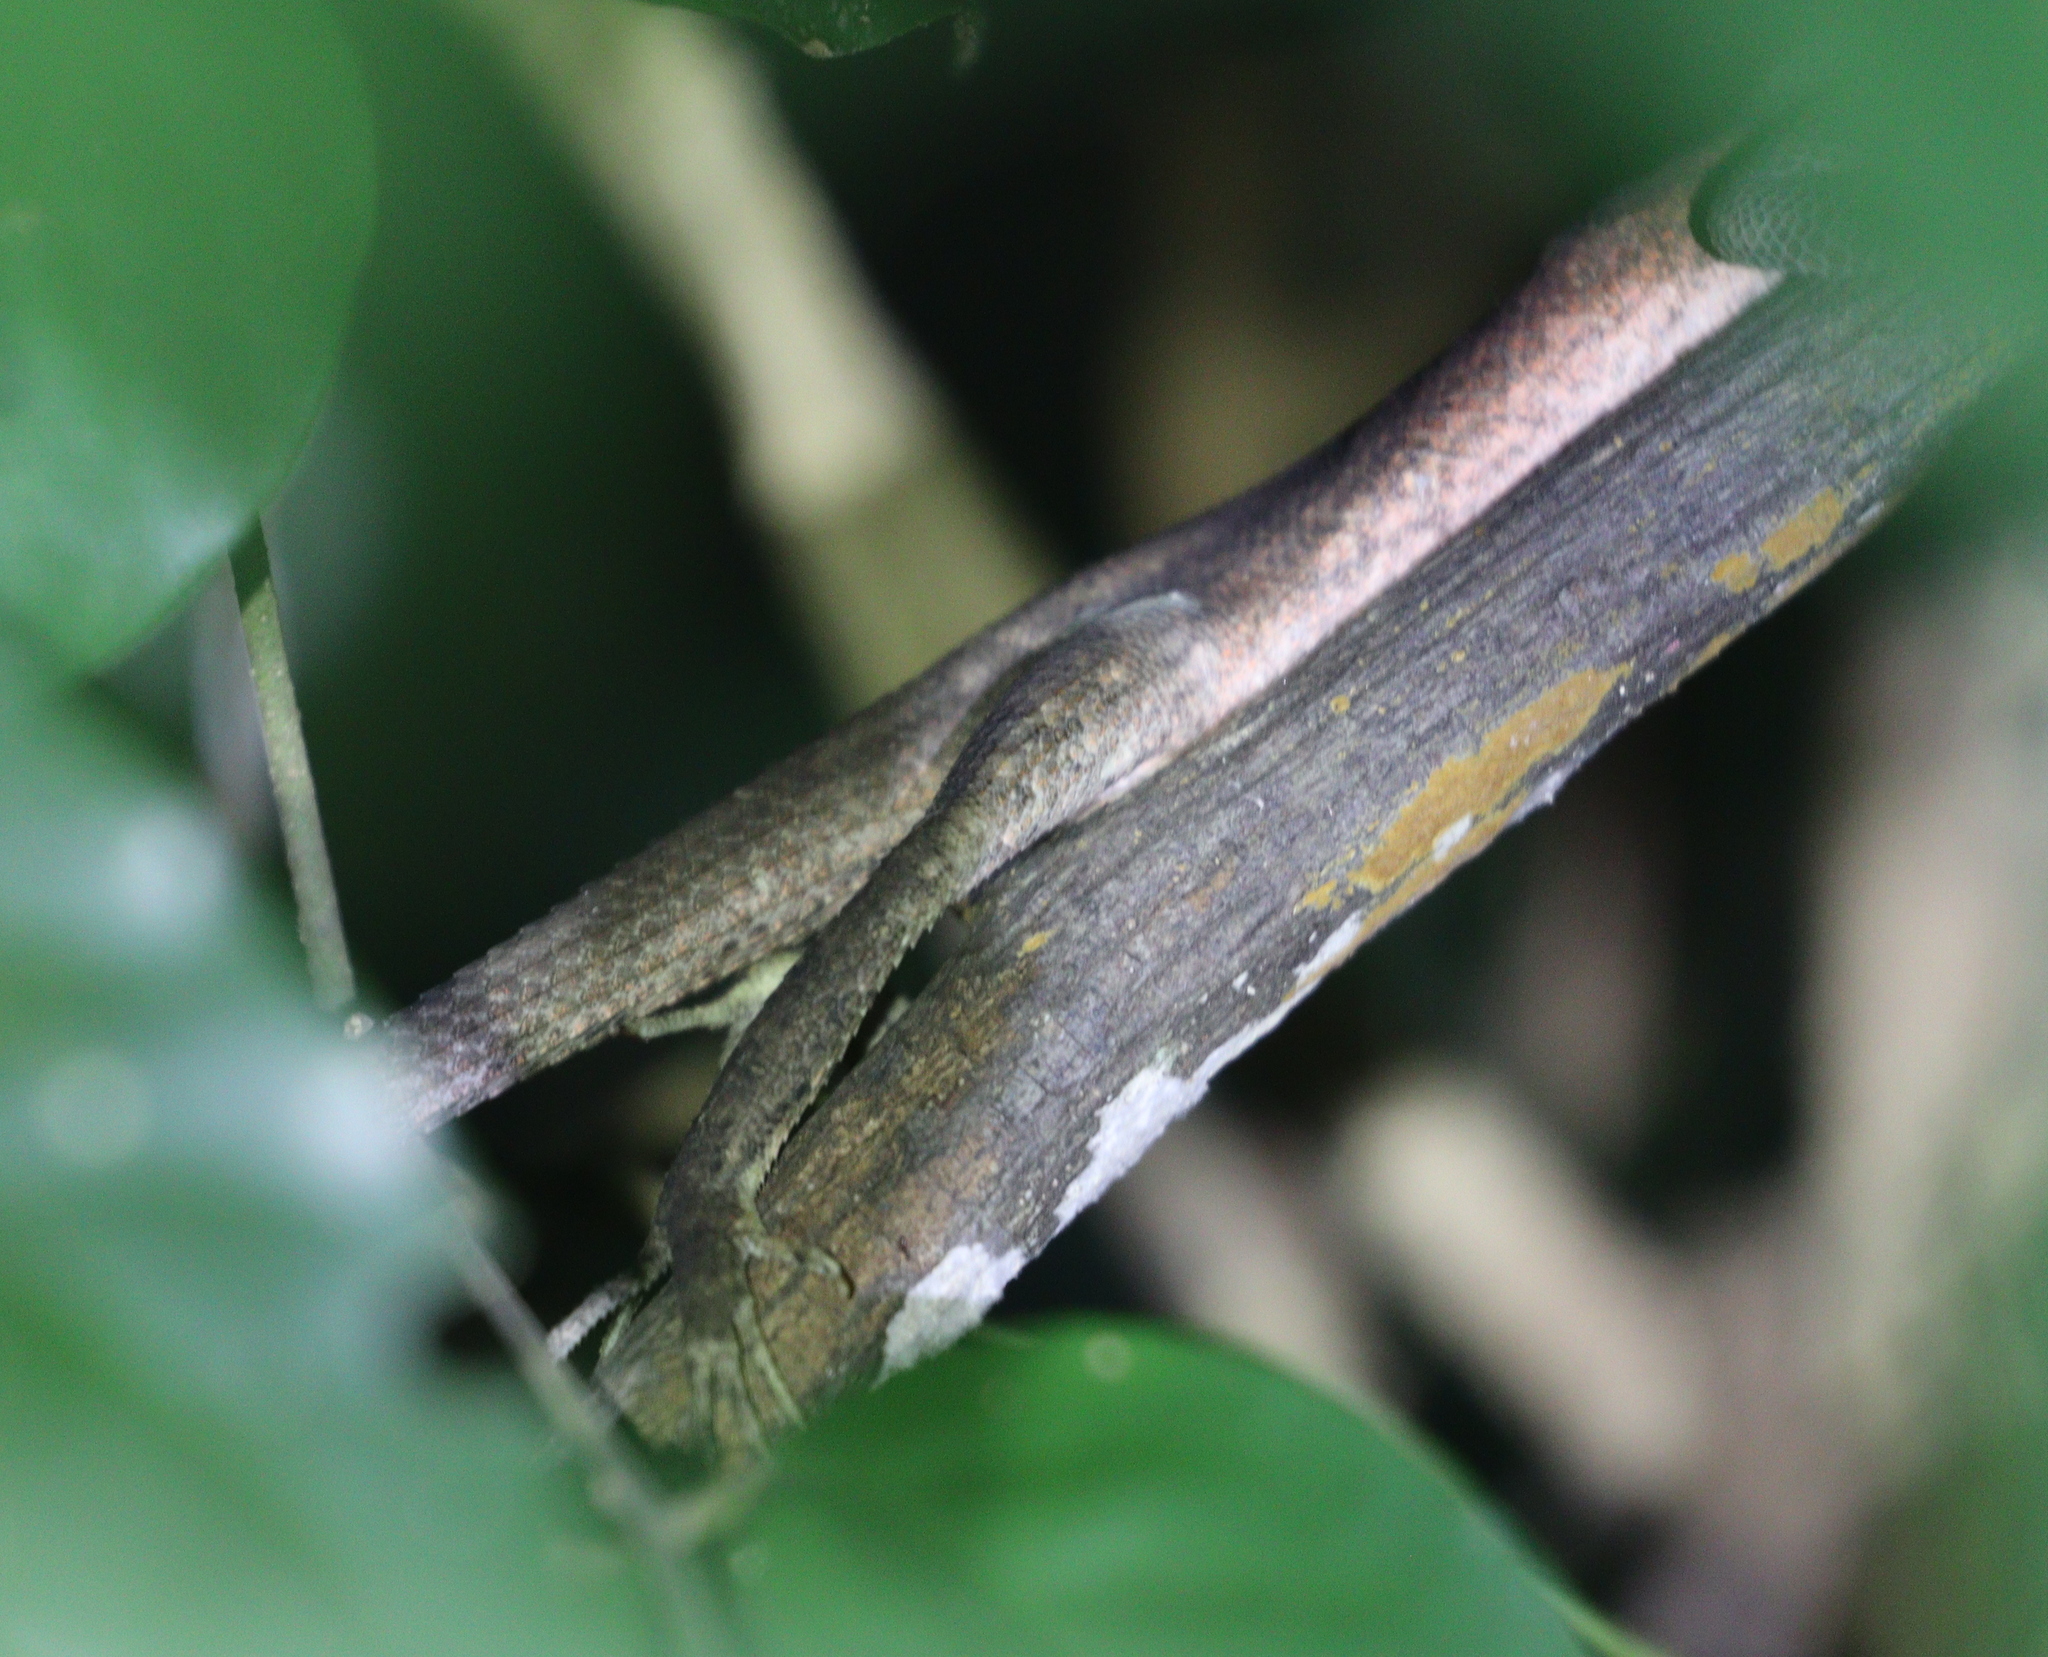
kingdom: Animalia
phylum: Chordata
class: Squamata
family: Agamidae
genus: Calotes
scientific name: Calotes emma
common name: Thailand bloodsucker
